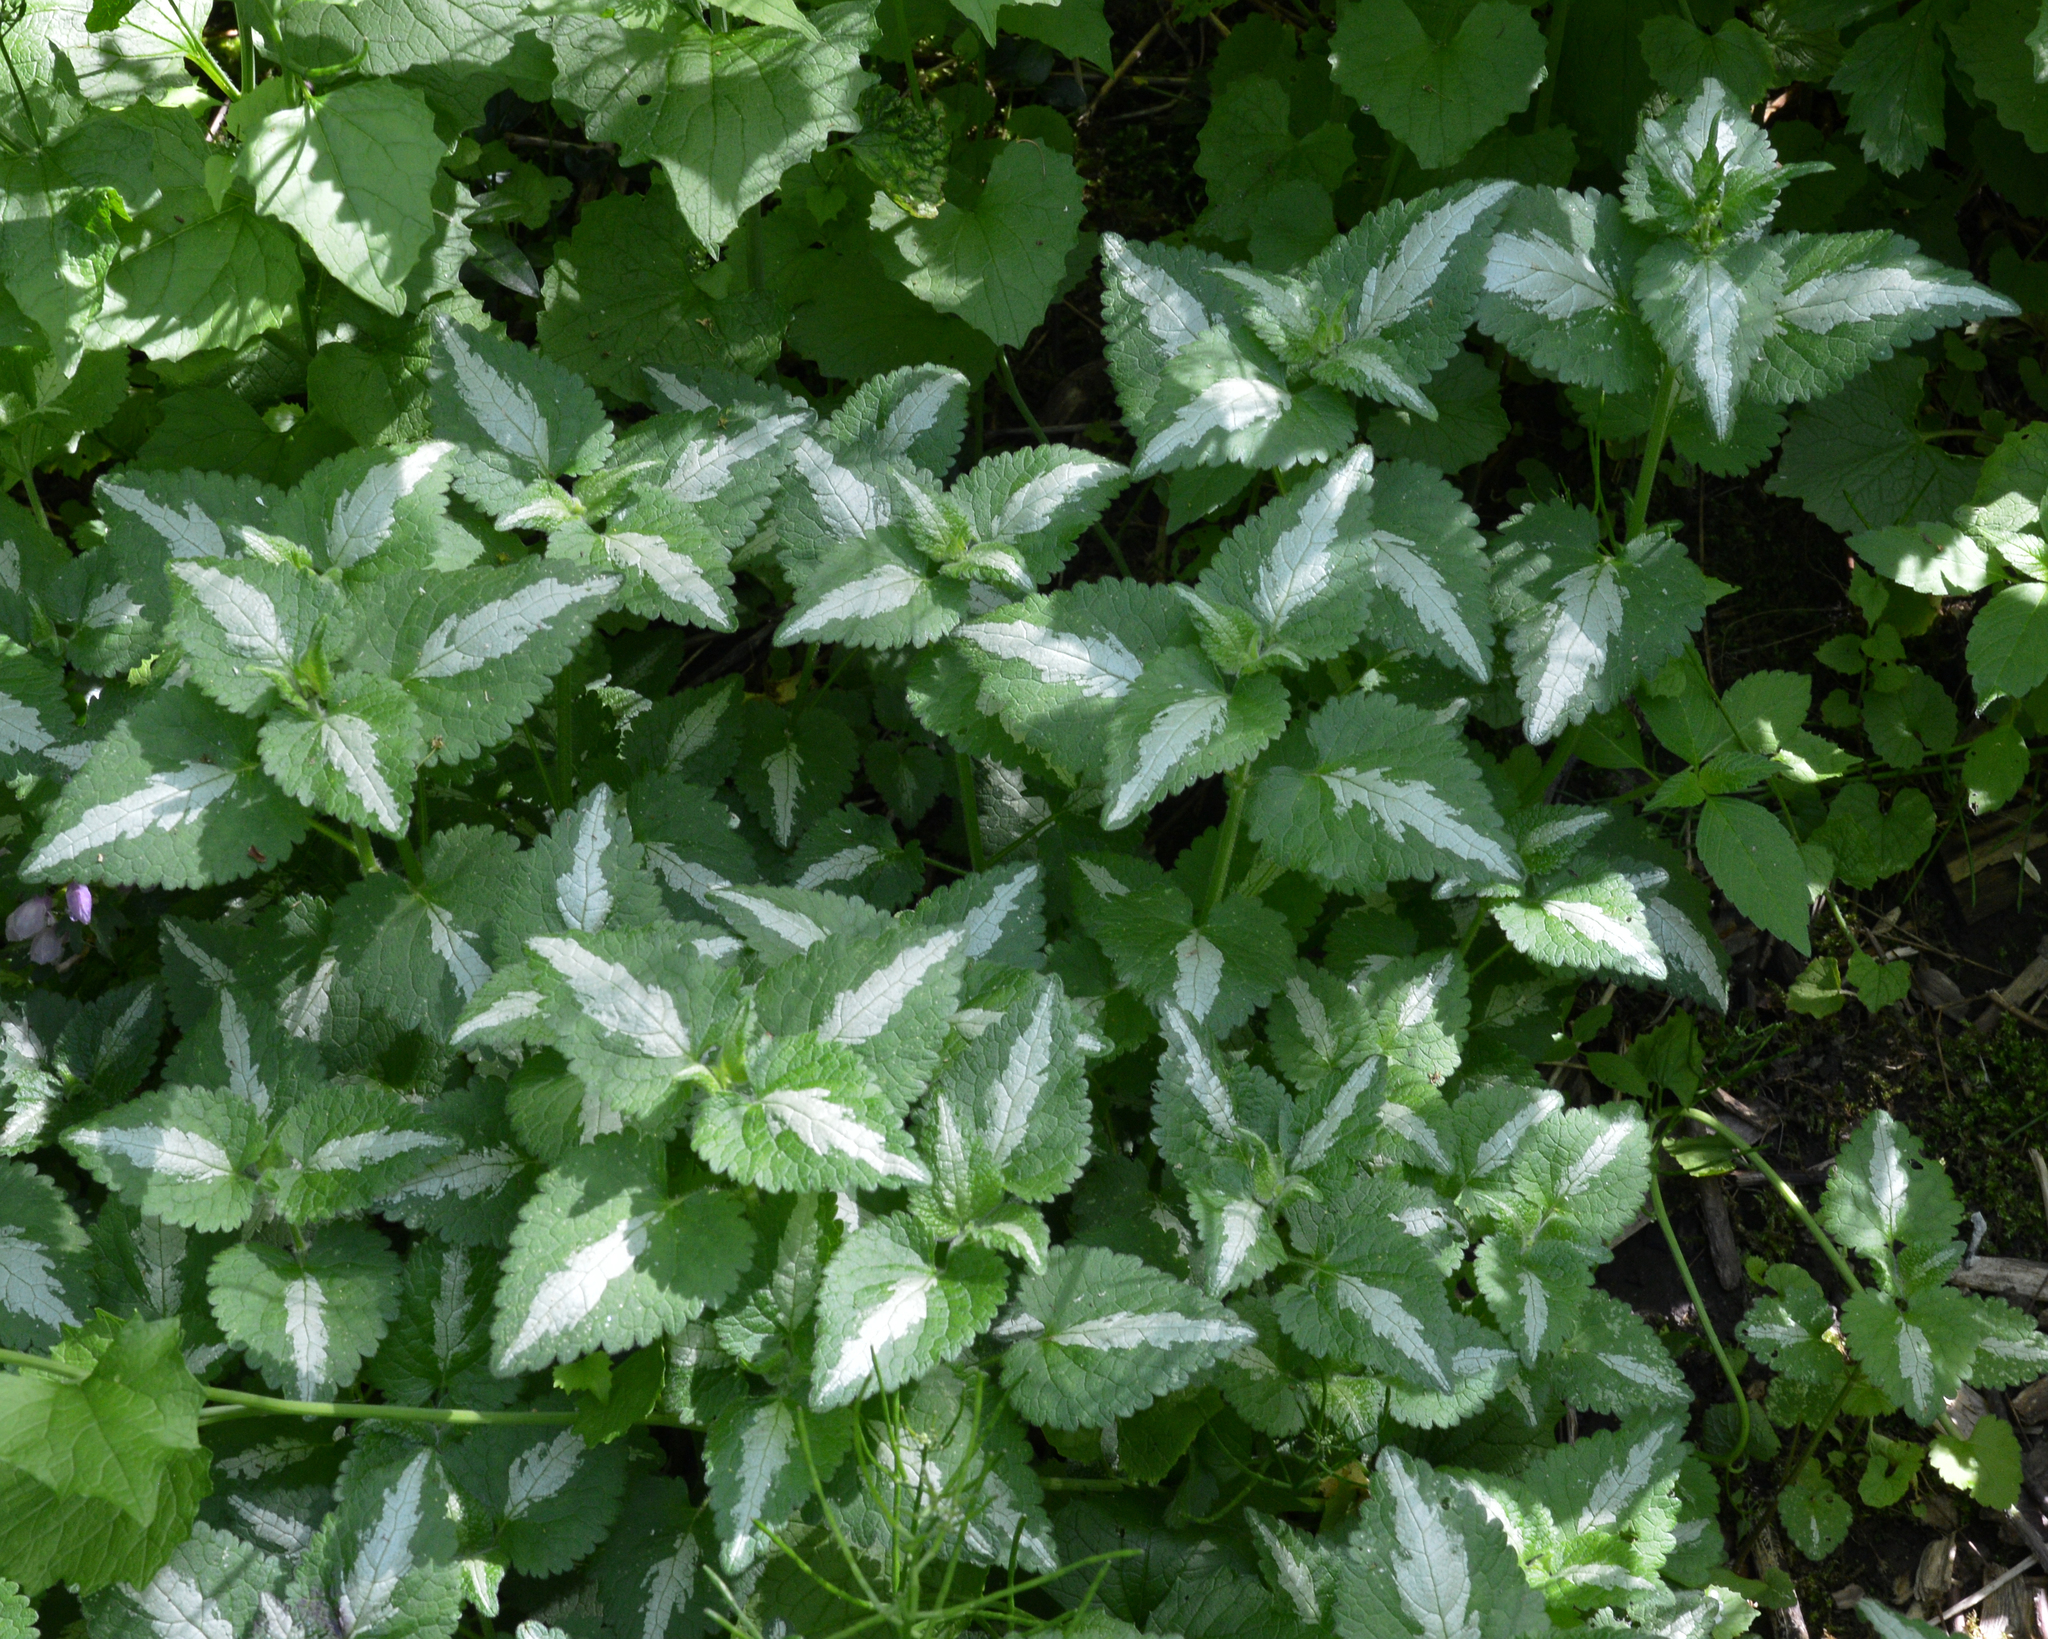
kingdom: Plantae
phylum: Tracheophyta
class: Magnoliopsida
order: Lamiales
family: Lamiaceae
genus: Lamium
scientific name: Lamium maculatum
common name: Spotted dead-nettle
